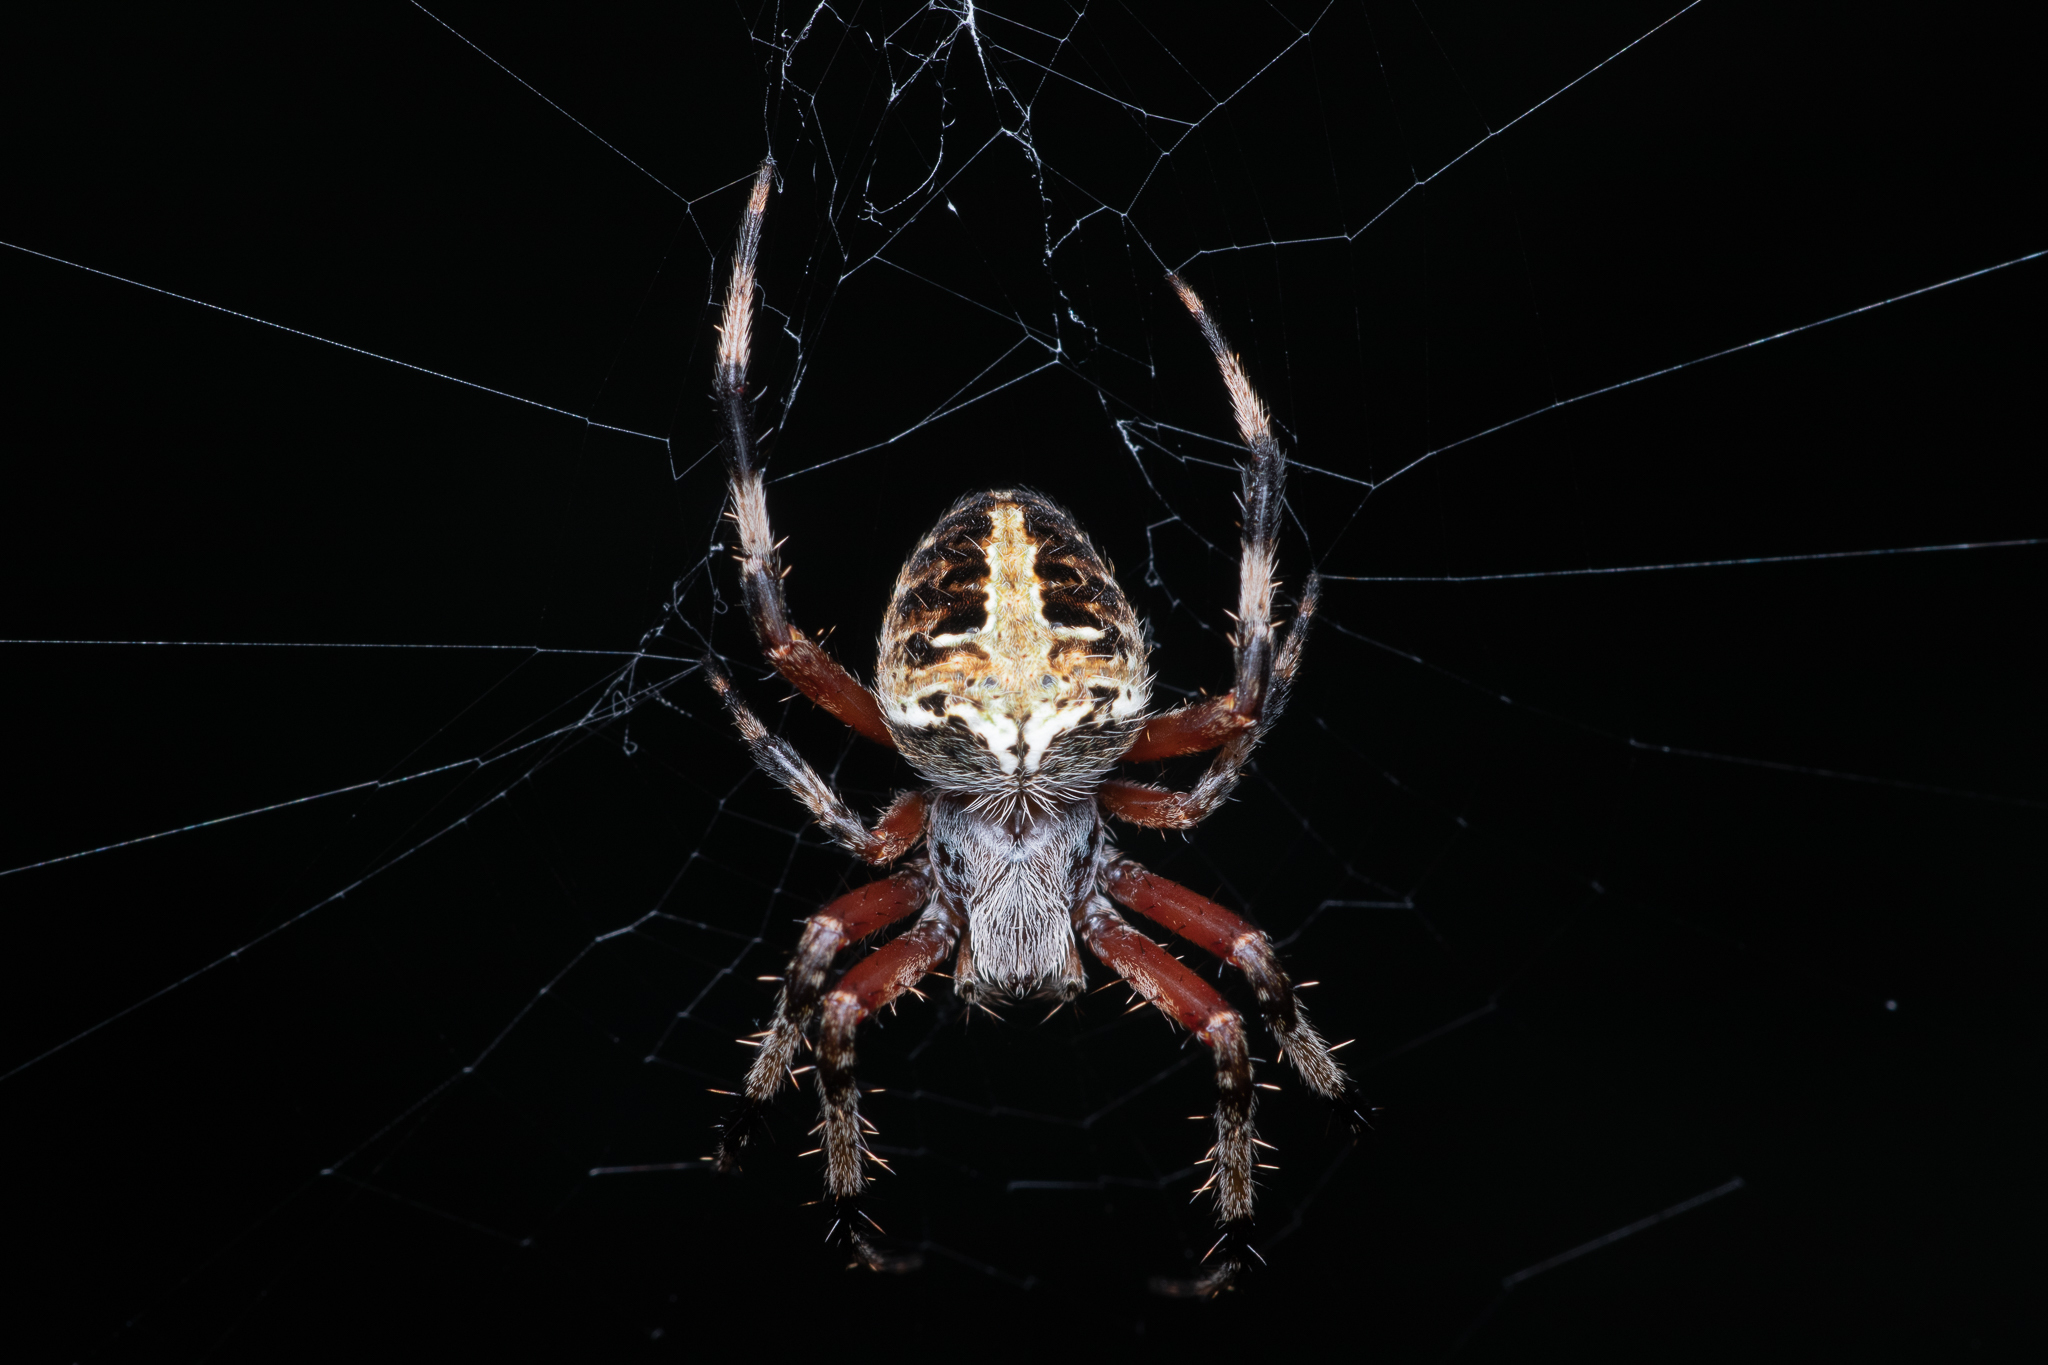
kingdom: Animalia
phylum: Arthropoda
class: Arachnida
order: Araneae
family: Araneidae
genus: Neoscona
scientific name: Neoscona domiciliorum
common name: Red-femured spotted orbweaver
